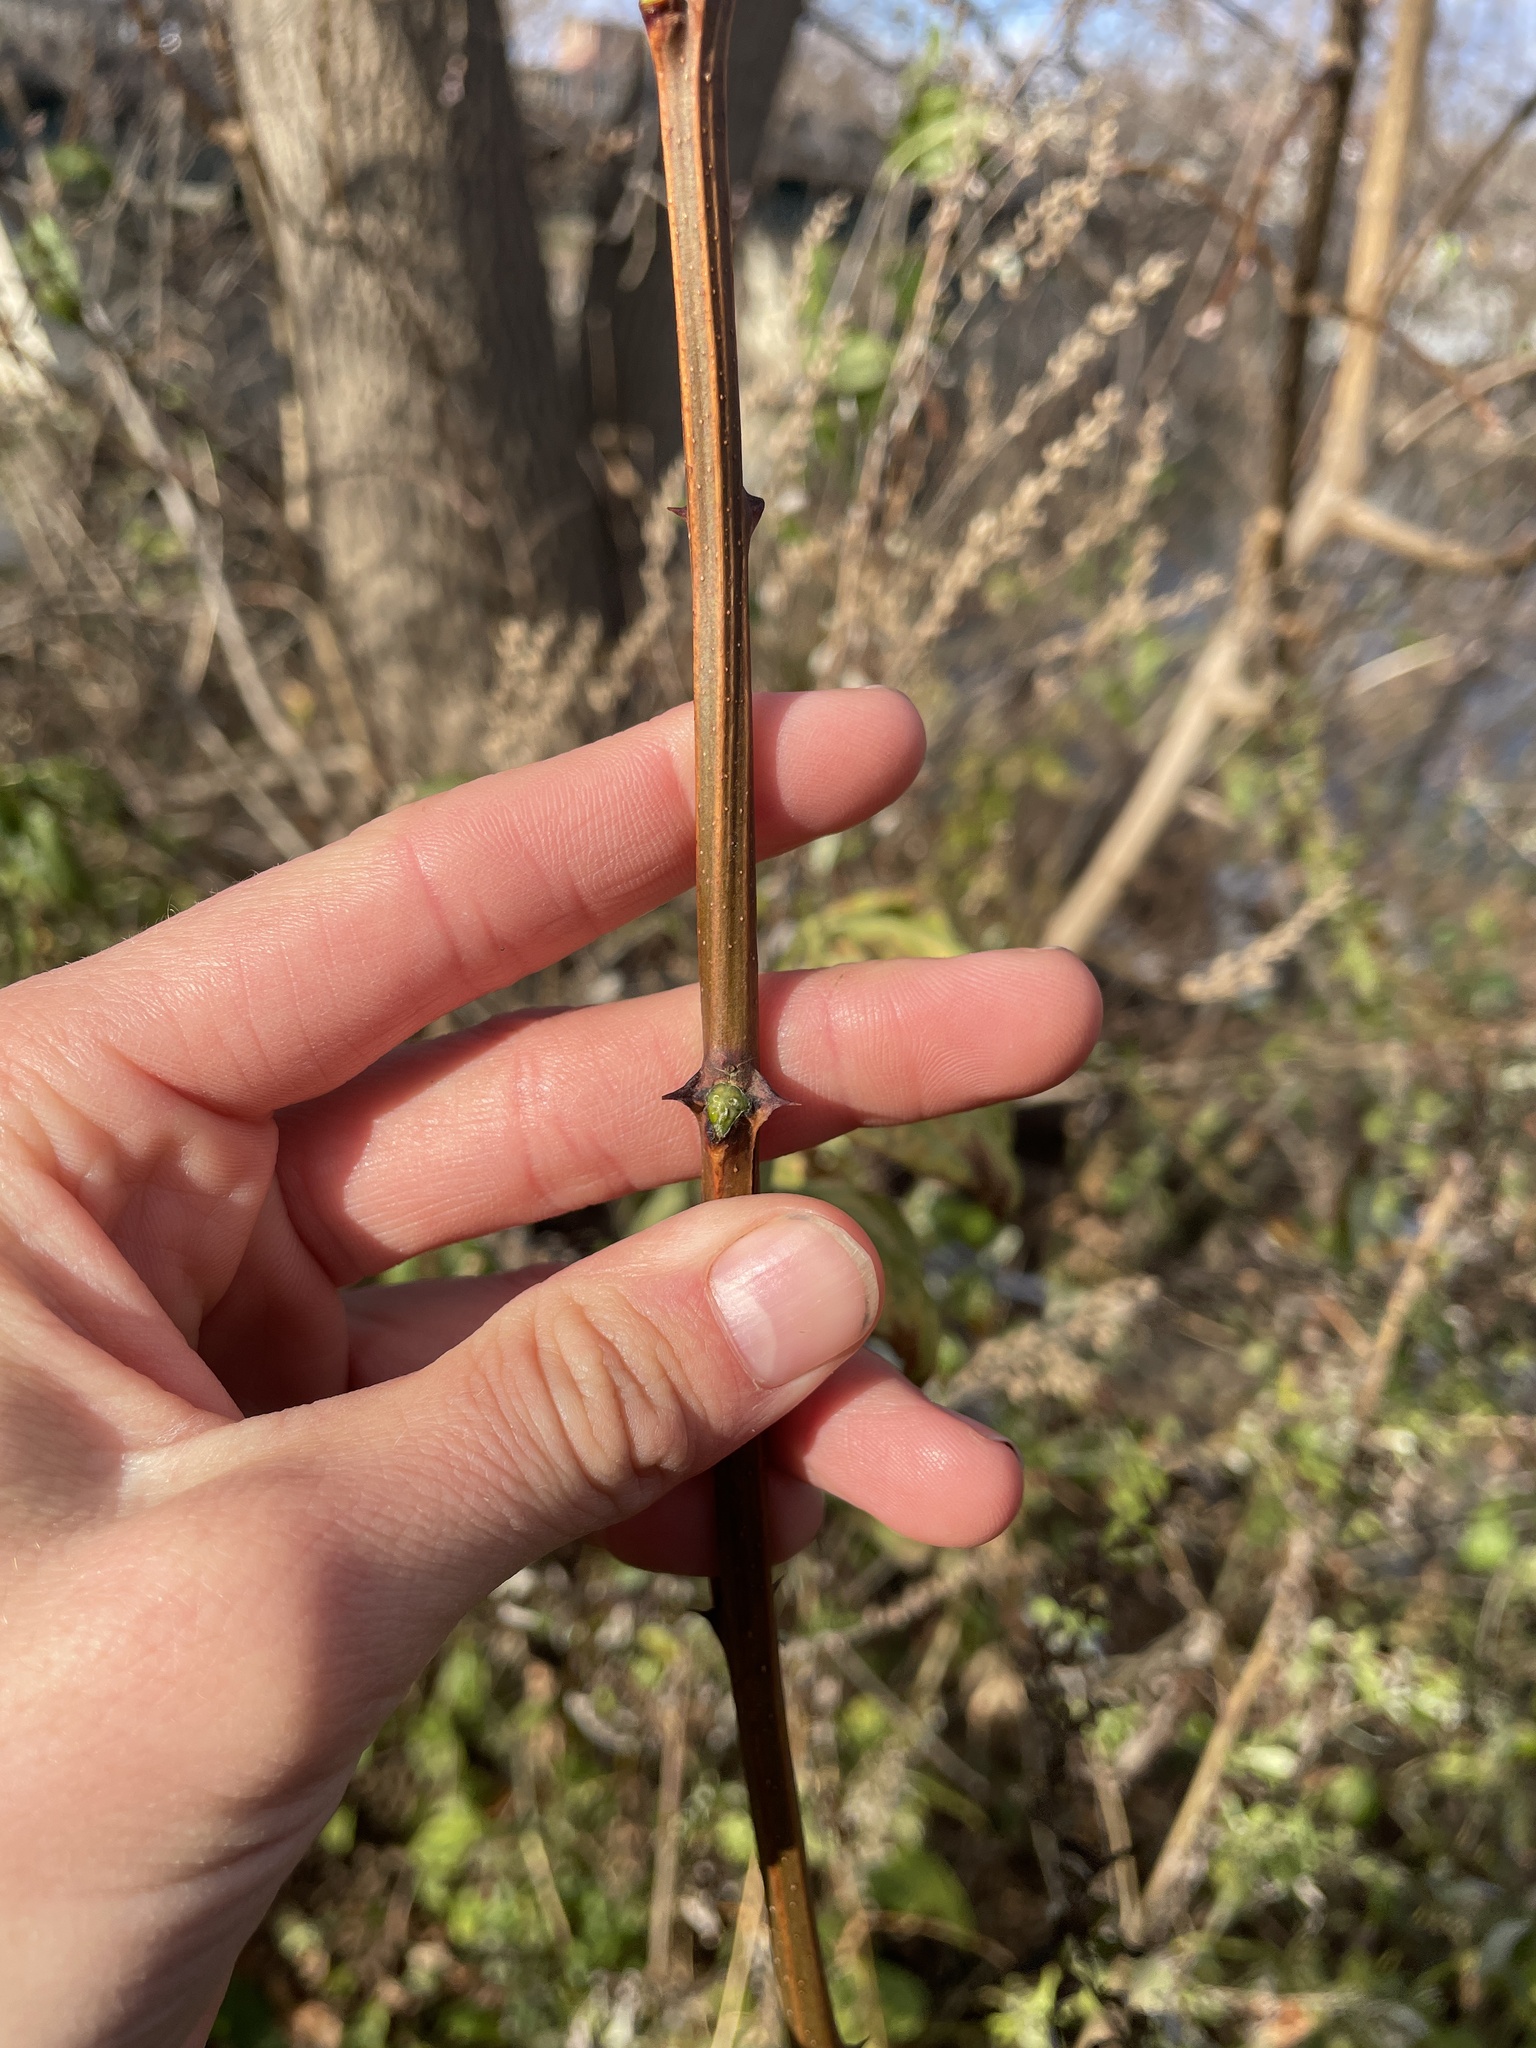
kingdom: Plantae
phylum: Tracheophyta
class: Magnoliopsida
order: Fabales
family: Fabaceae
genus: Robinia
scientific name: Robinia pseudoacacia
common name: Black locust
